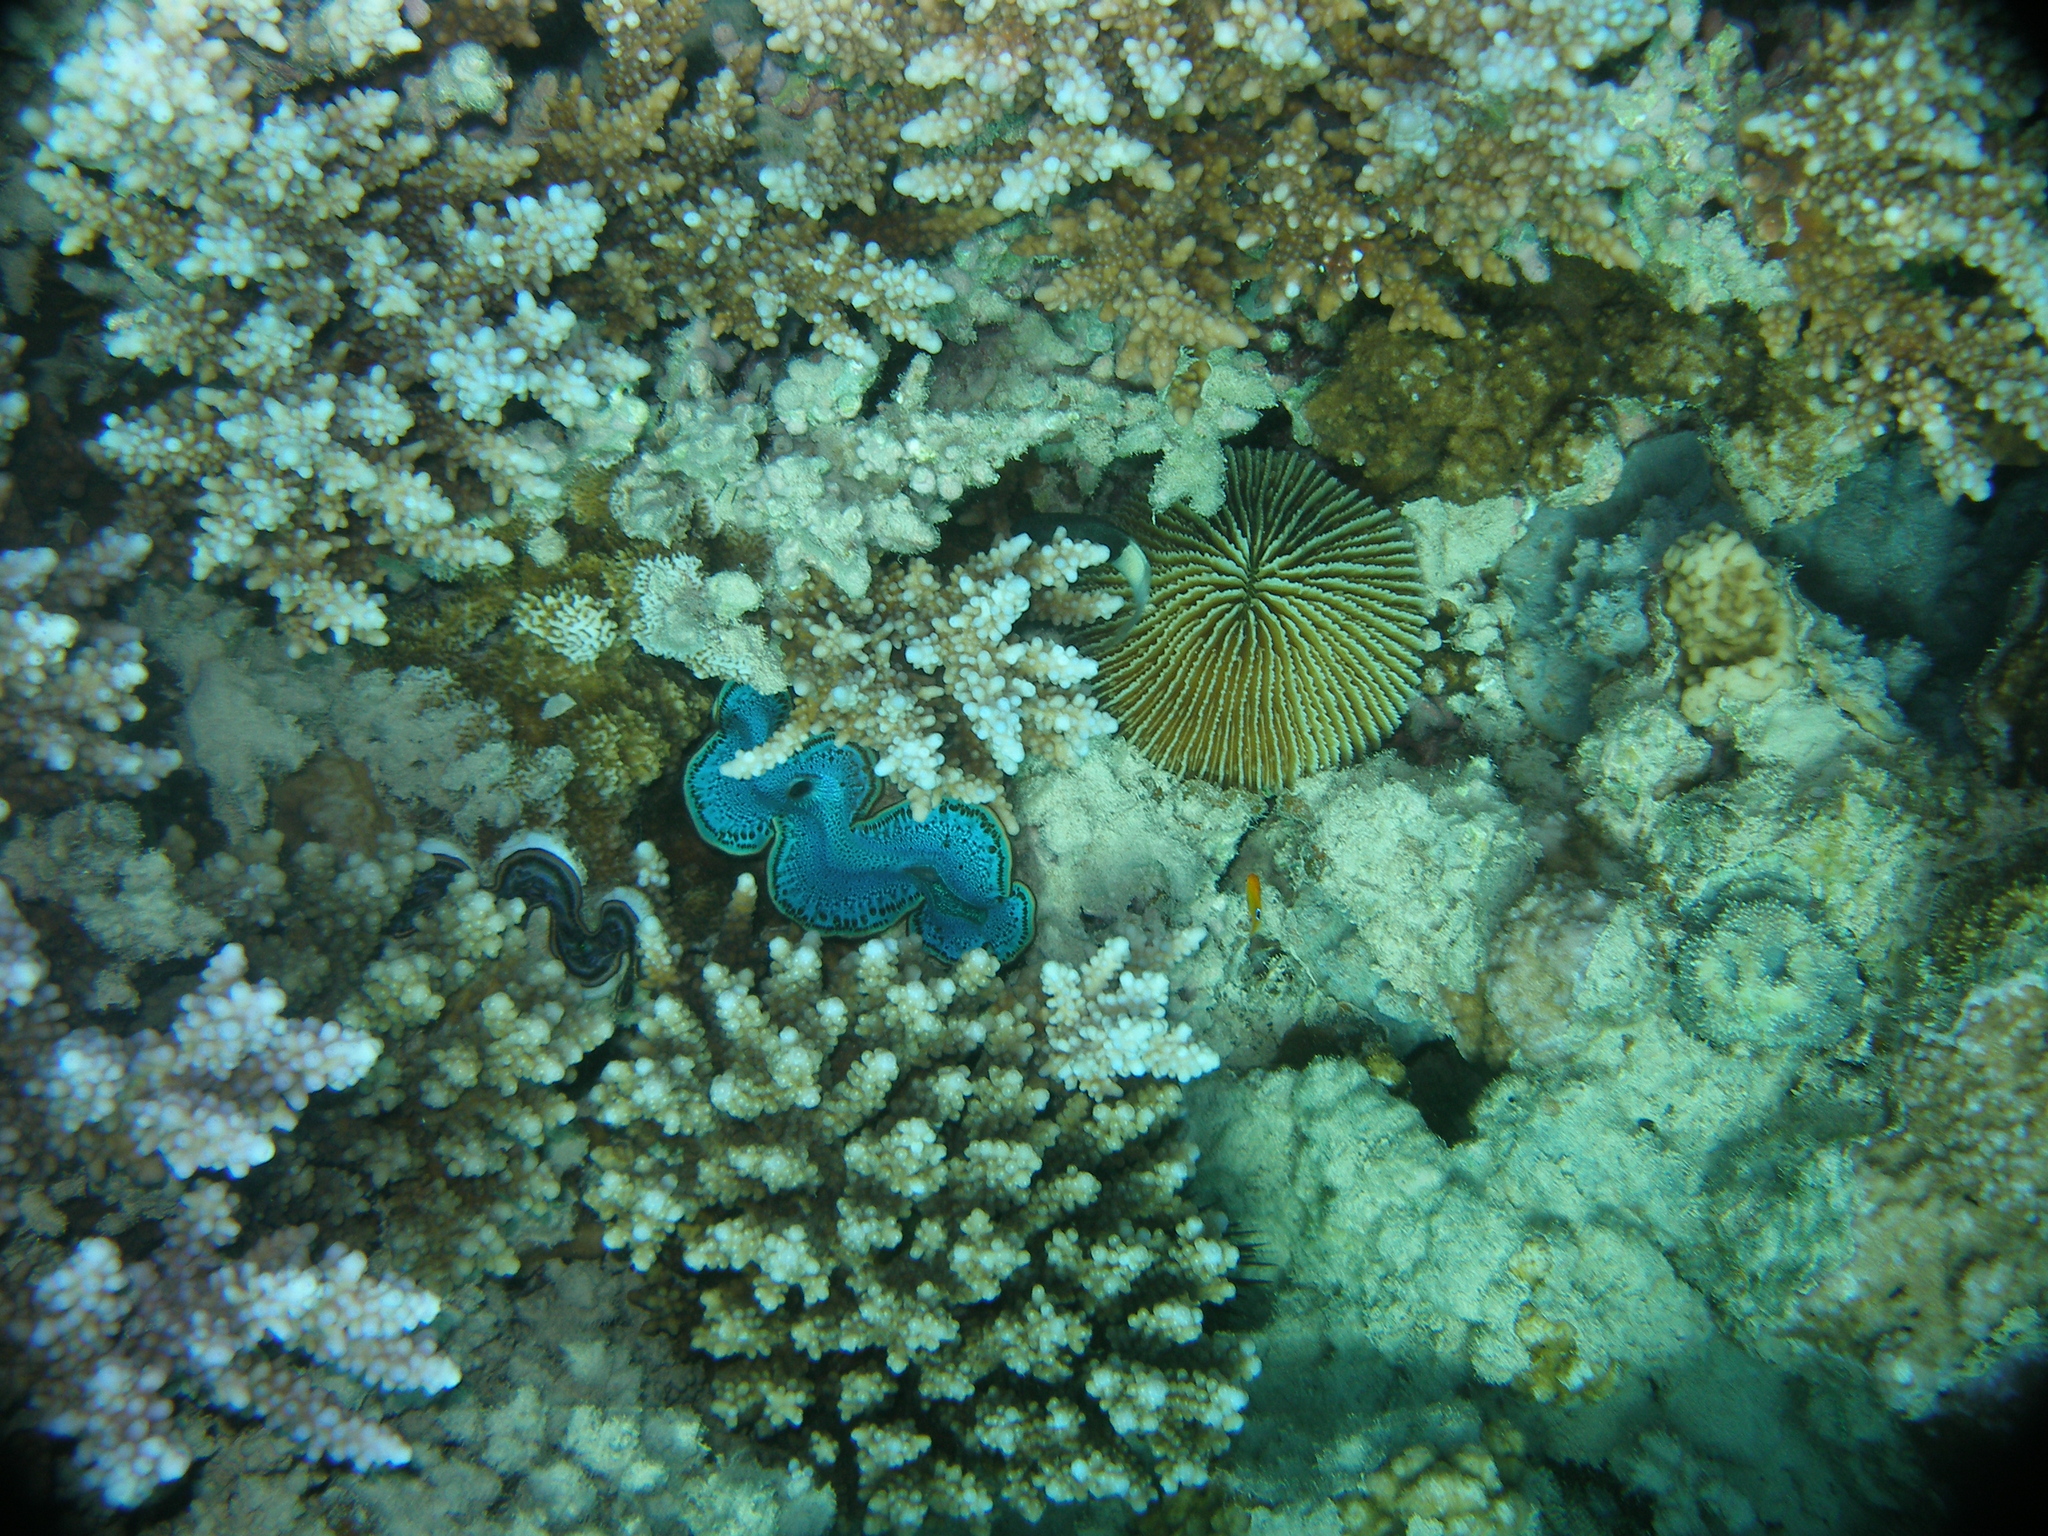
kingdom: Animalia
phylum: Cnidaria
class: Anthozoa
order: Scleractinia
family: Fungiidae
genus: Danafungia
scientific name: Danafungia horrida
